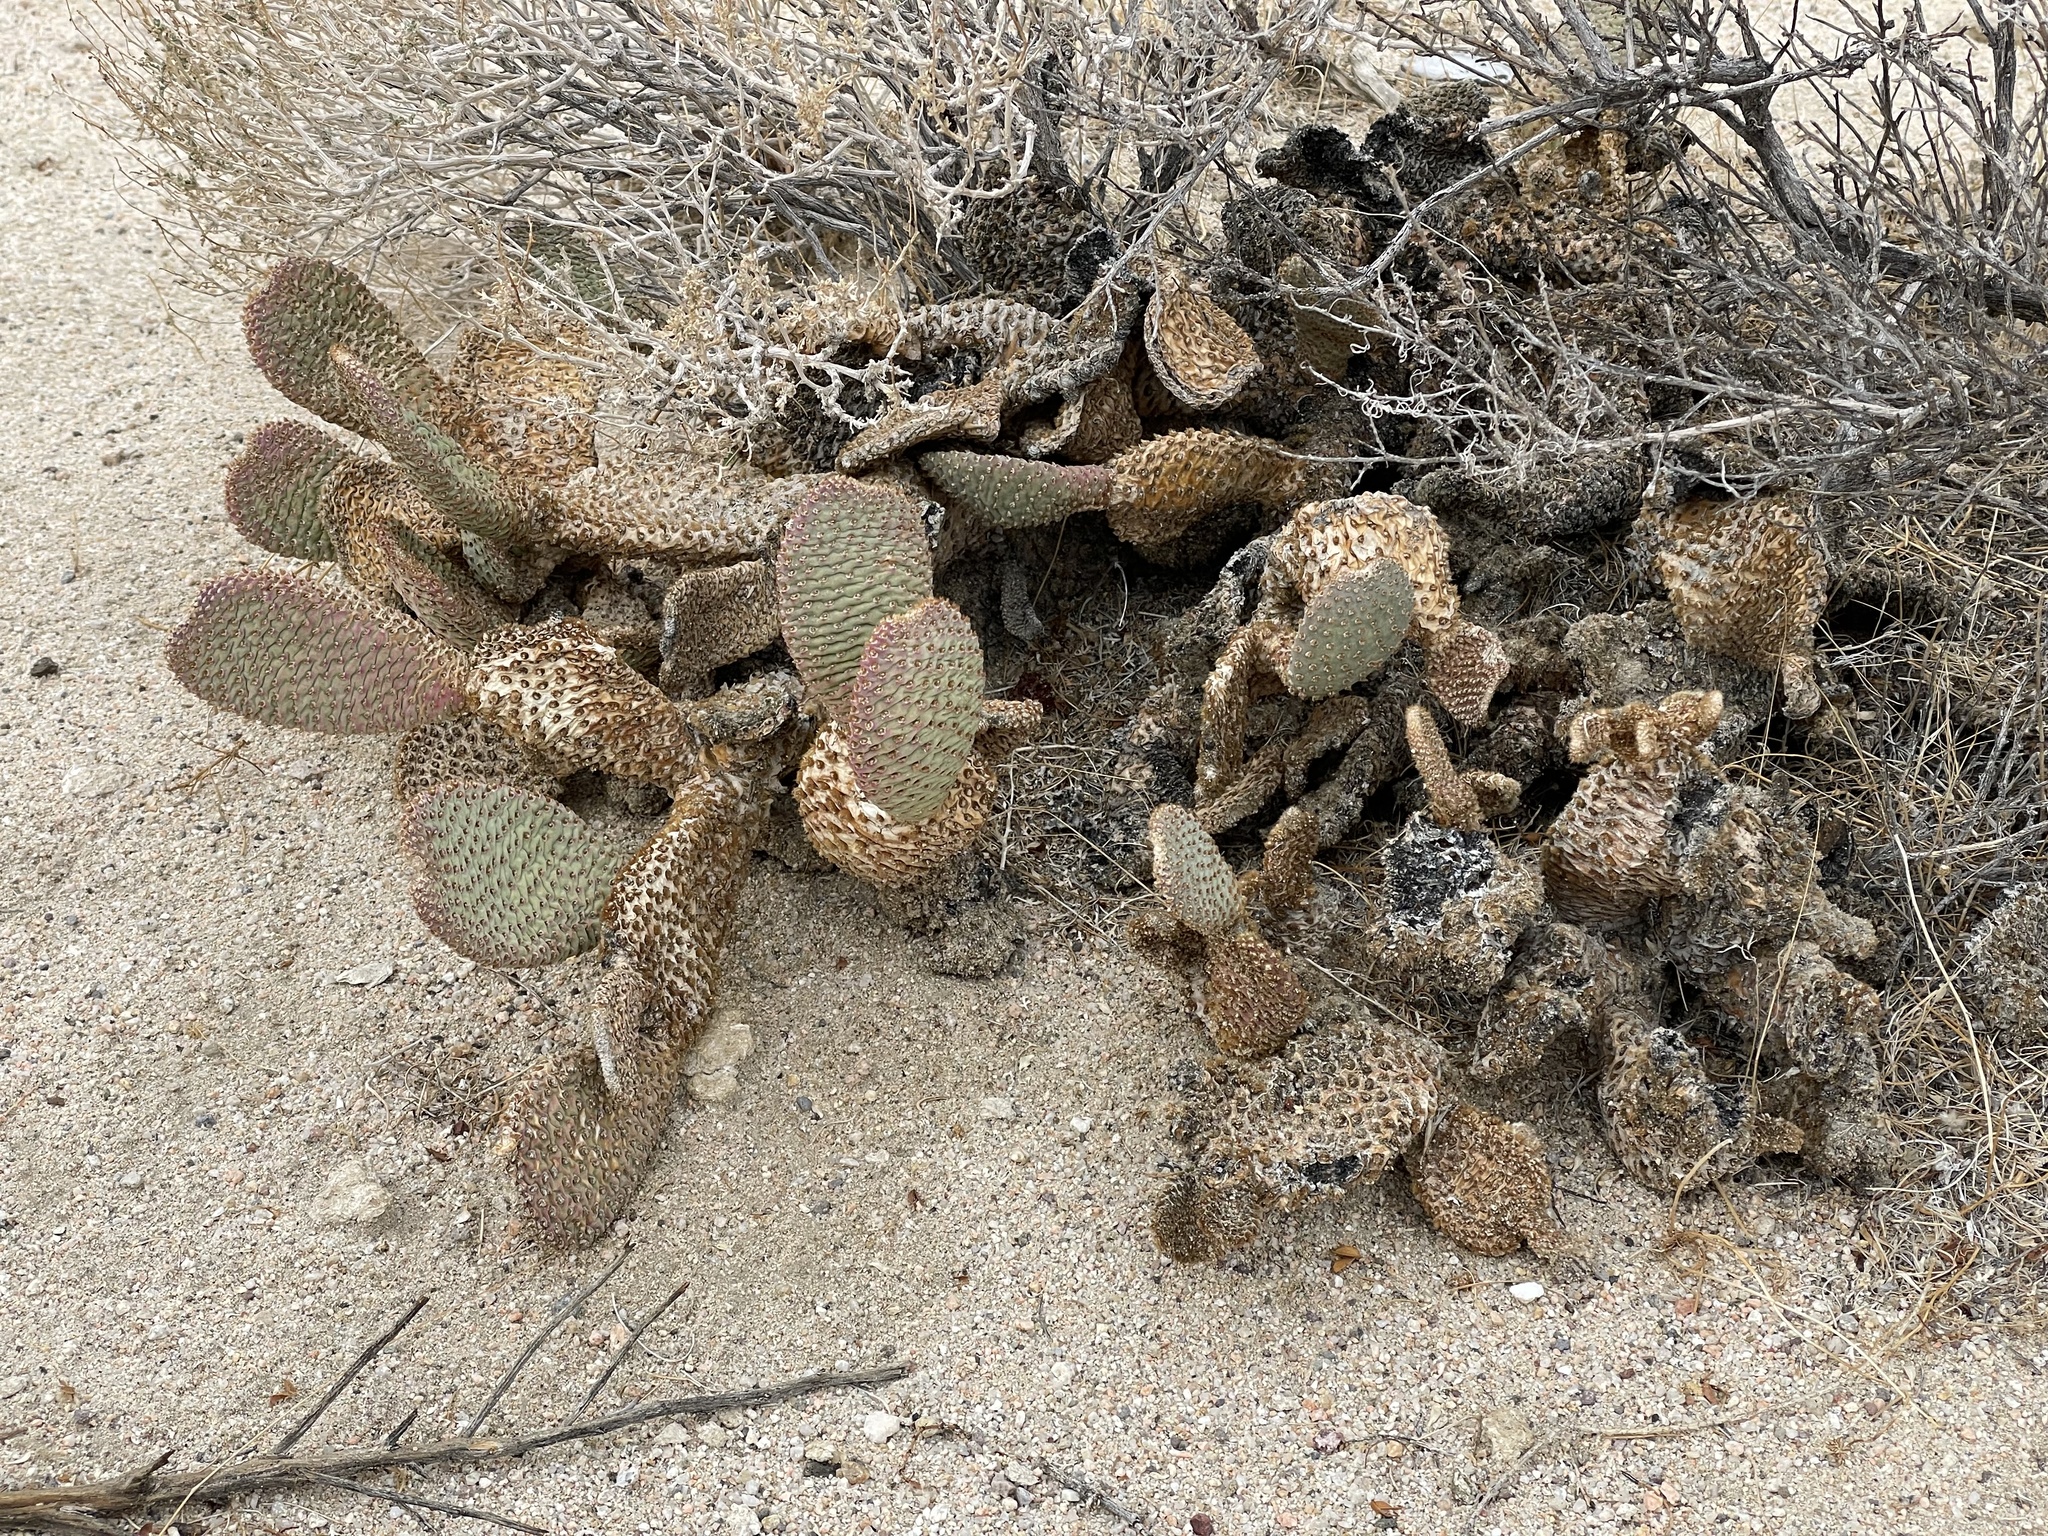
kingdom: Plantae
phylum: Tracheophyta
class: Magnoliopsida
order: Caryophyllales
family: Cactaceae
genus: Opuntia
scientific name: Opuntia basilaris
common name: Beavertail prickly-pear
